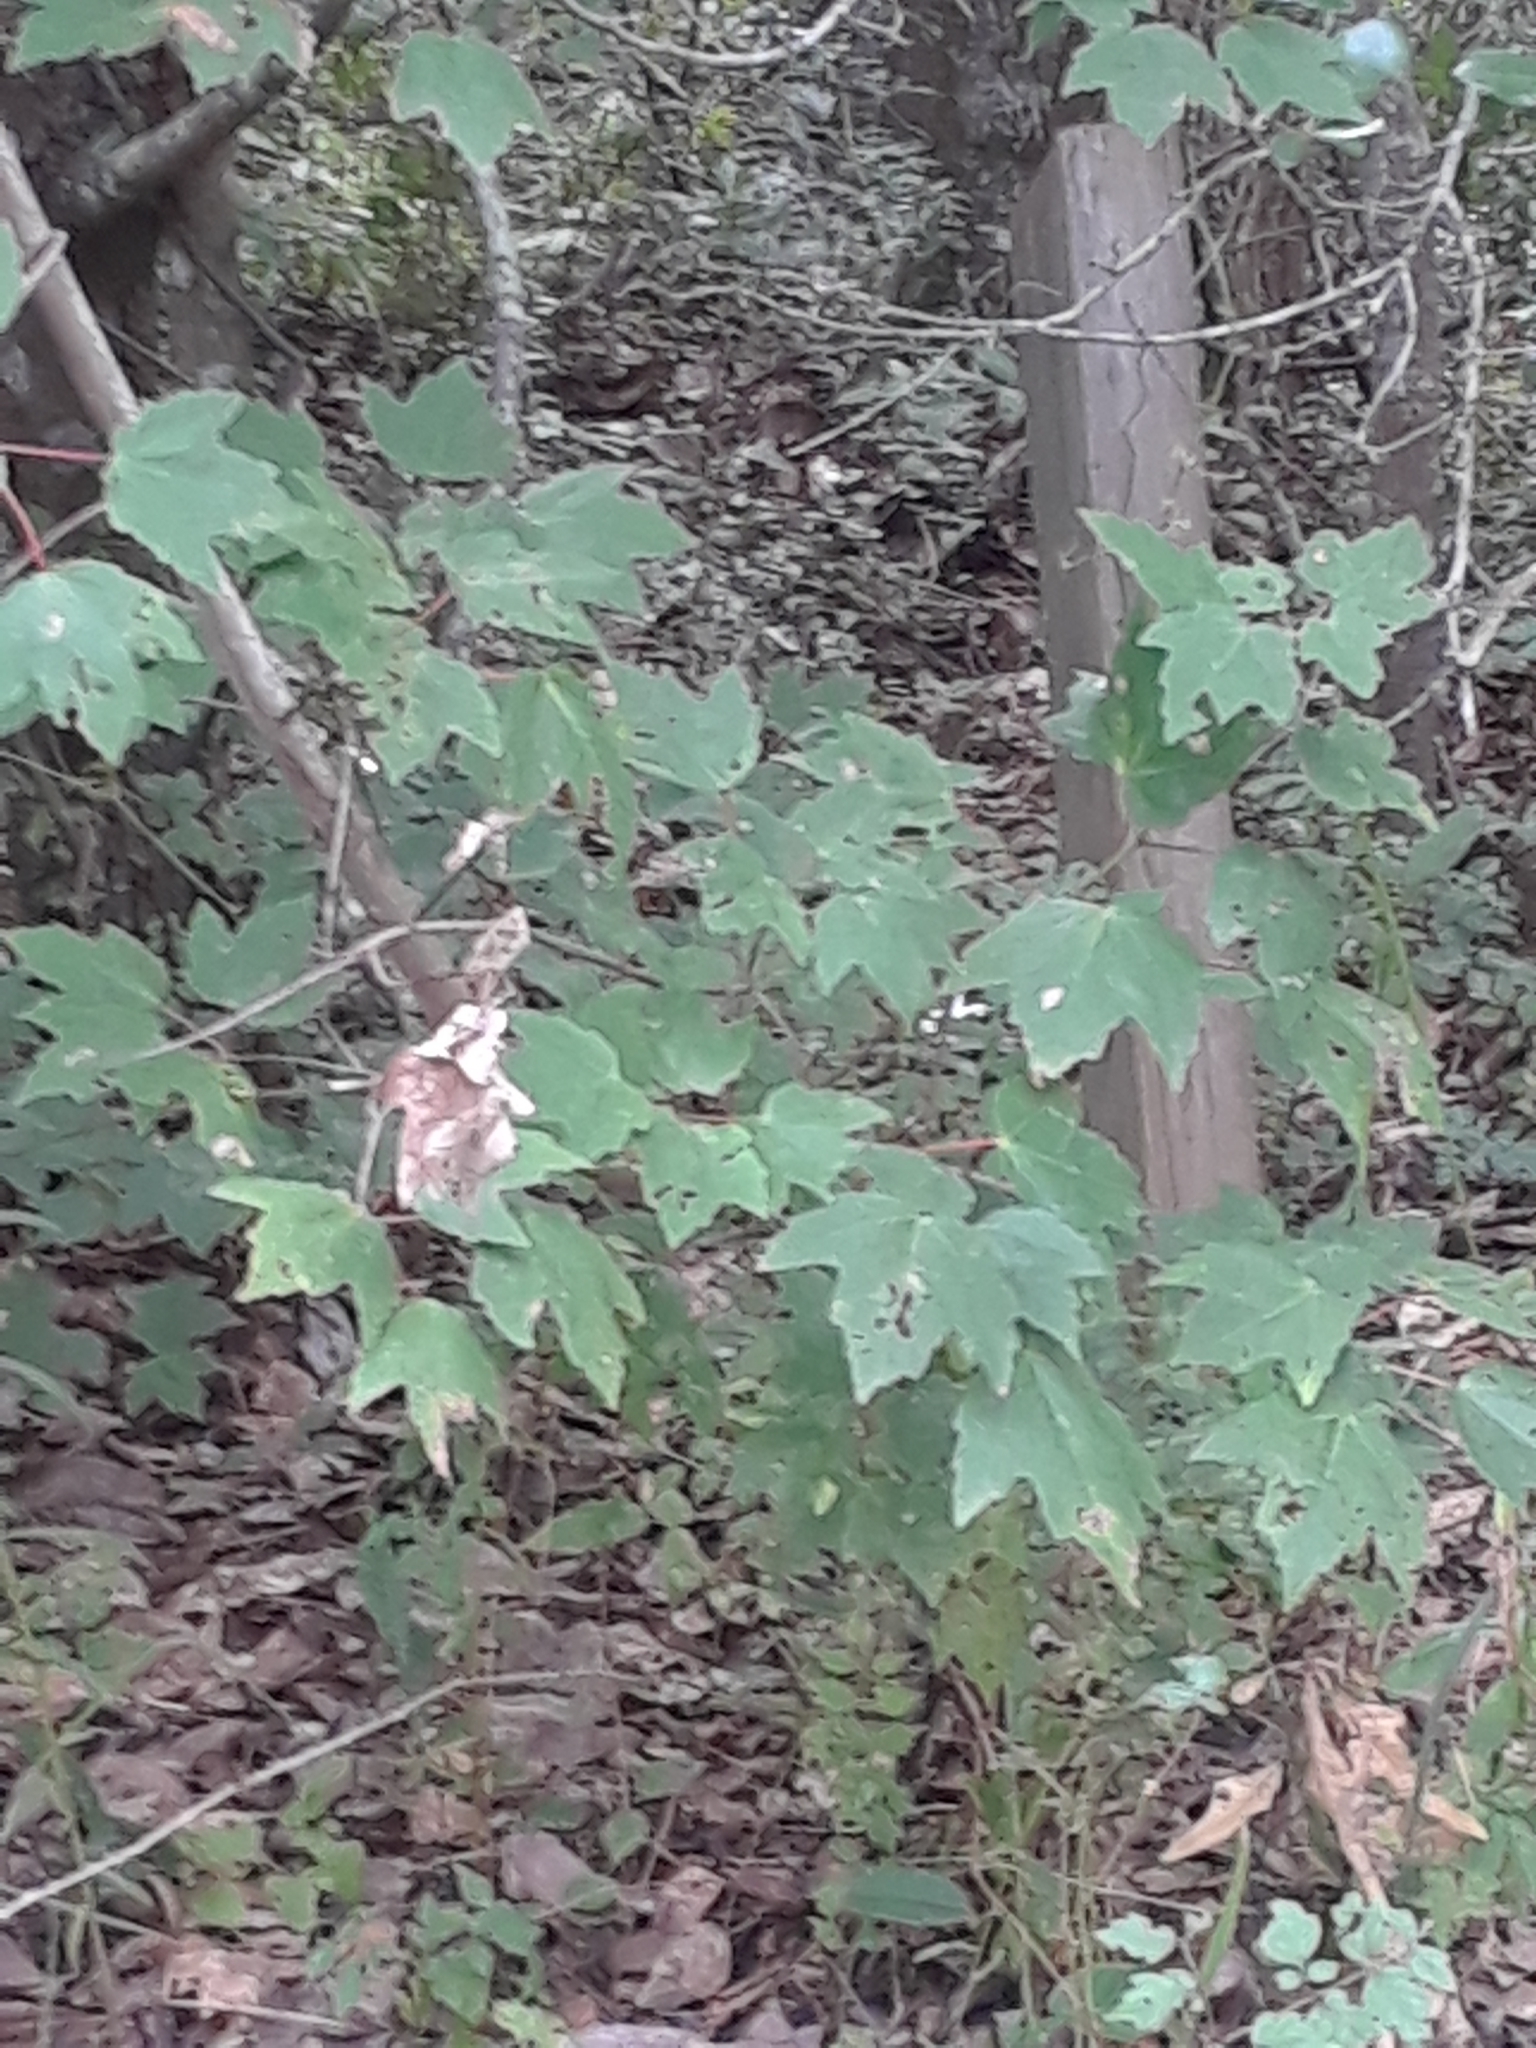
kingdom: Plantae
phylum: Tracheophyta
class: Magnoliopsida
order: Sapindales
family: Sapindaceae
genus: Acer
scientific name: Acer rubrum
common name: Red maple
